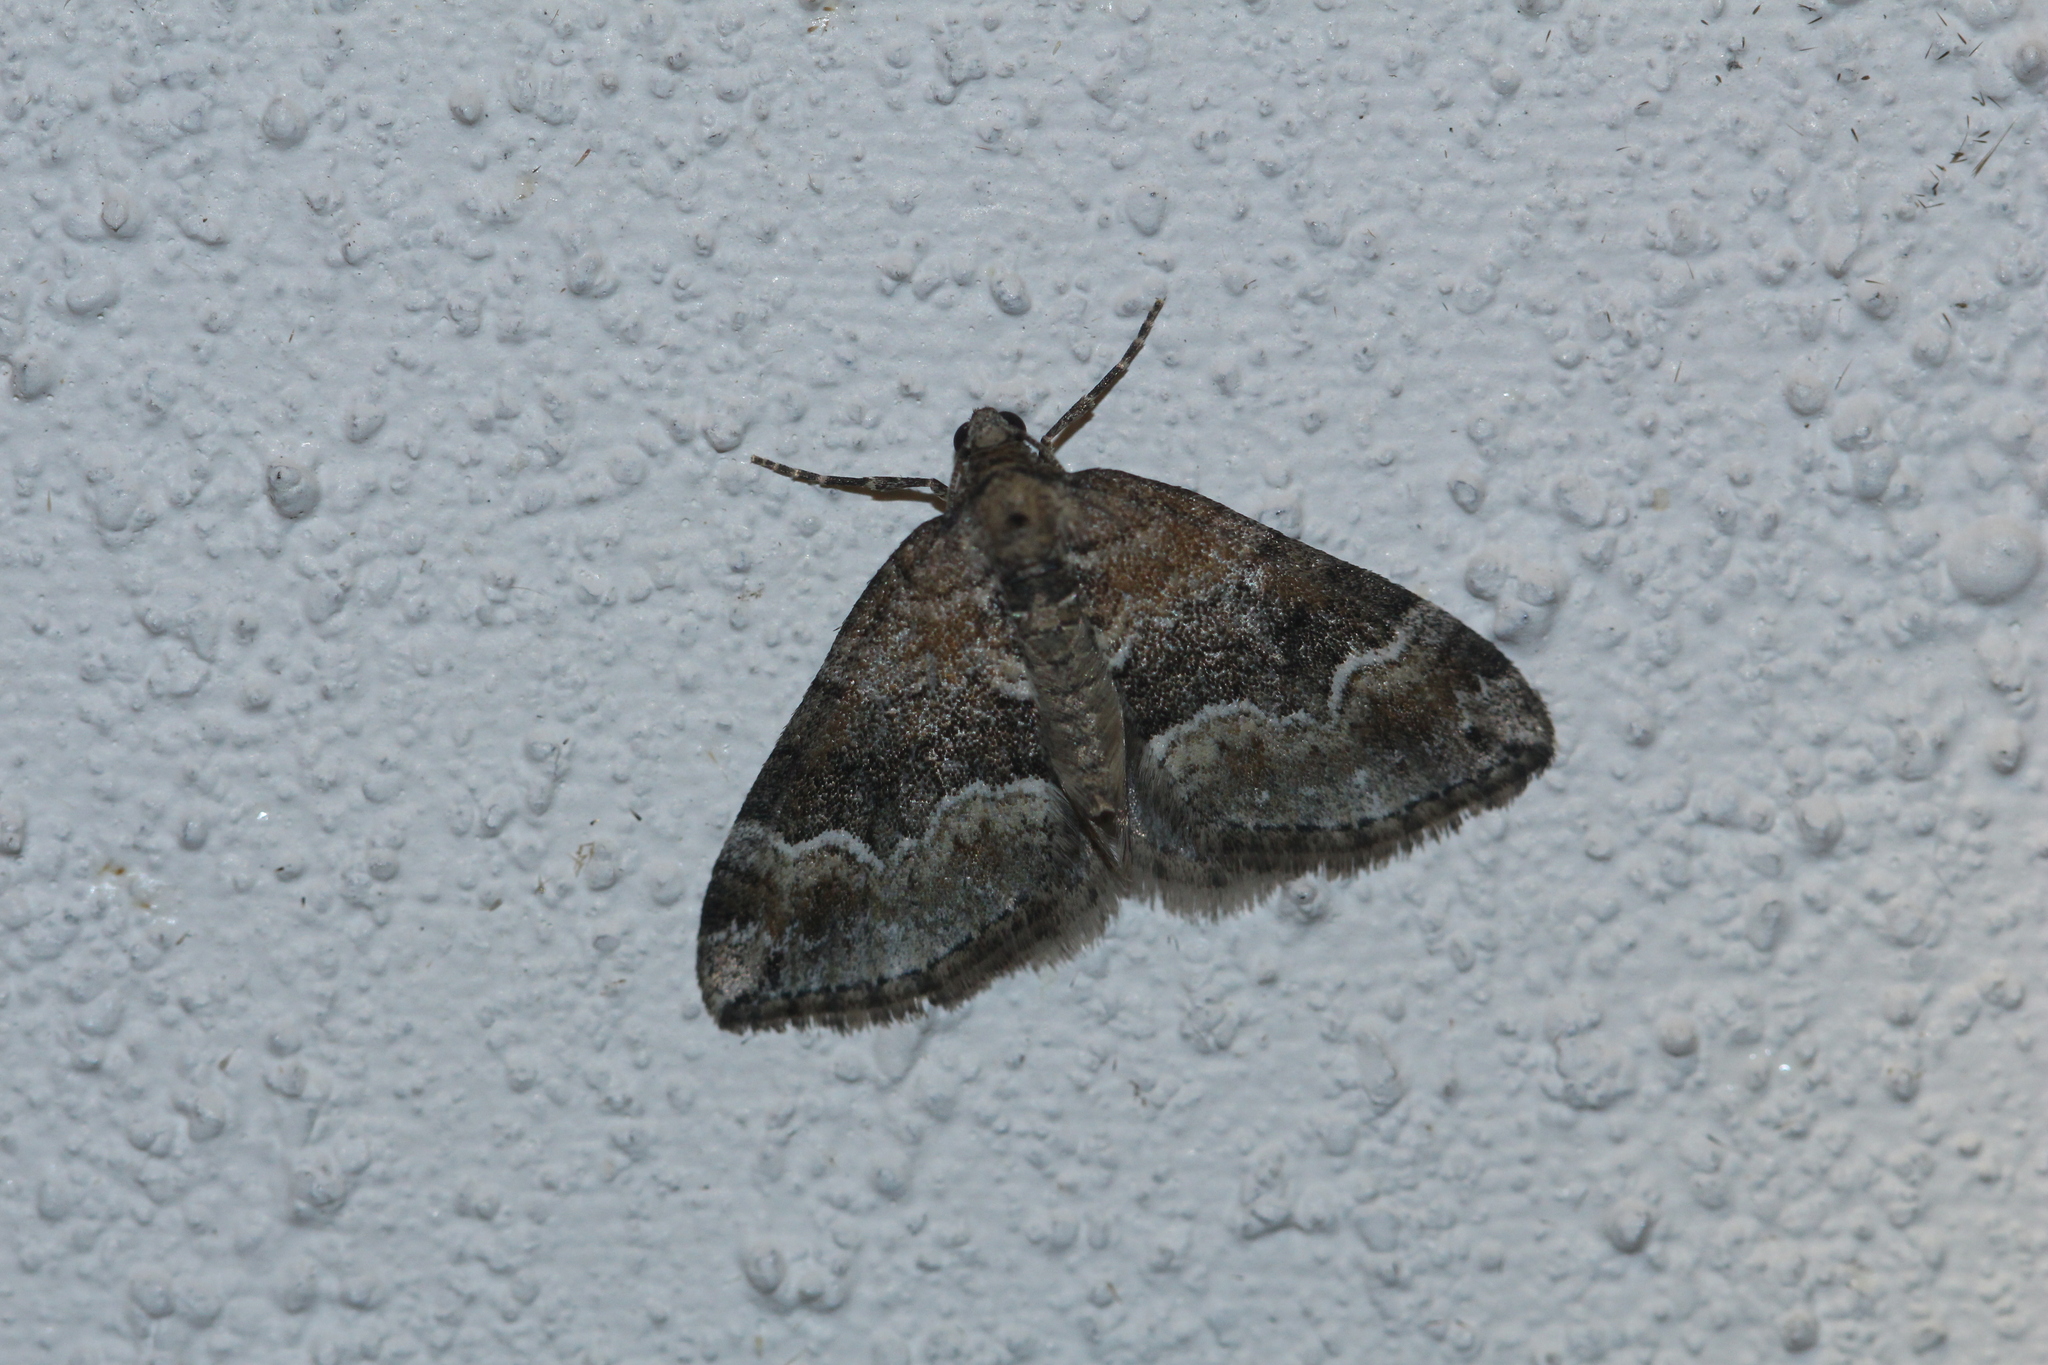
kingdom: Animalia
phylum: Arthropoda
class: Insecta
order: Lepidoptera
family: Geometridae
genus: Xanthorhoe
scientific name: Xanthorhoe ferrugata
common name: Dark-barred twin-spot carpet
